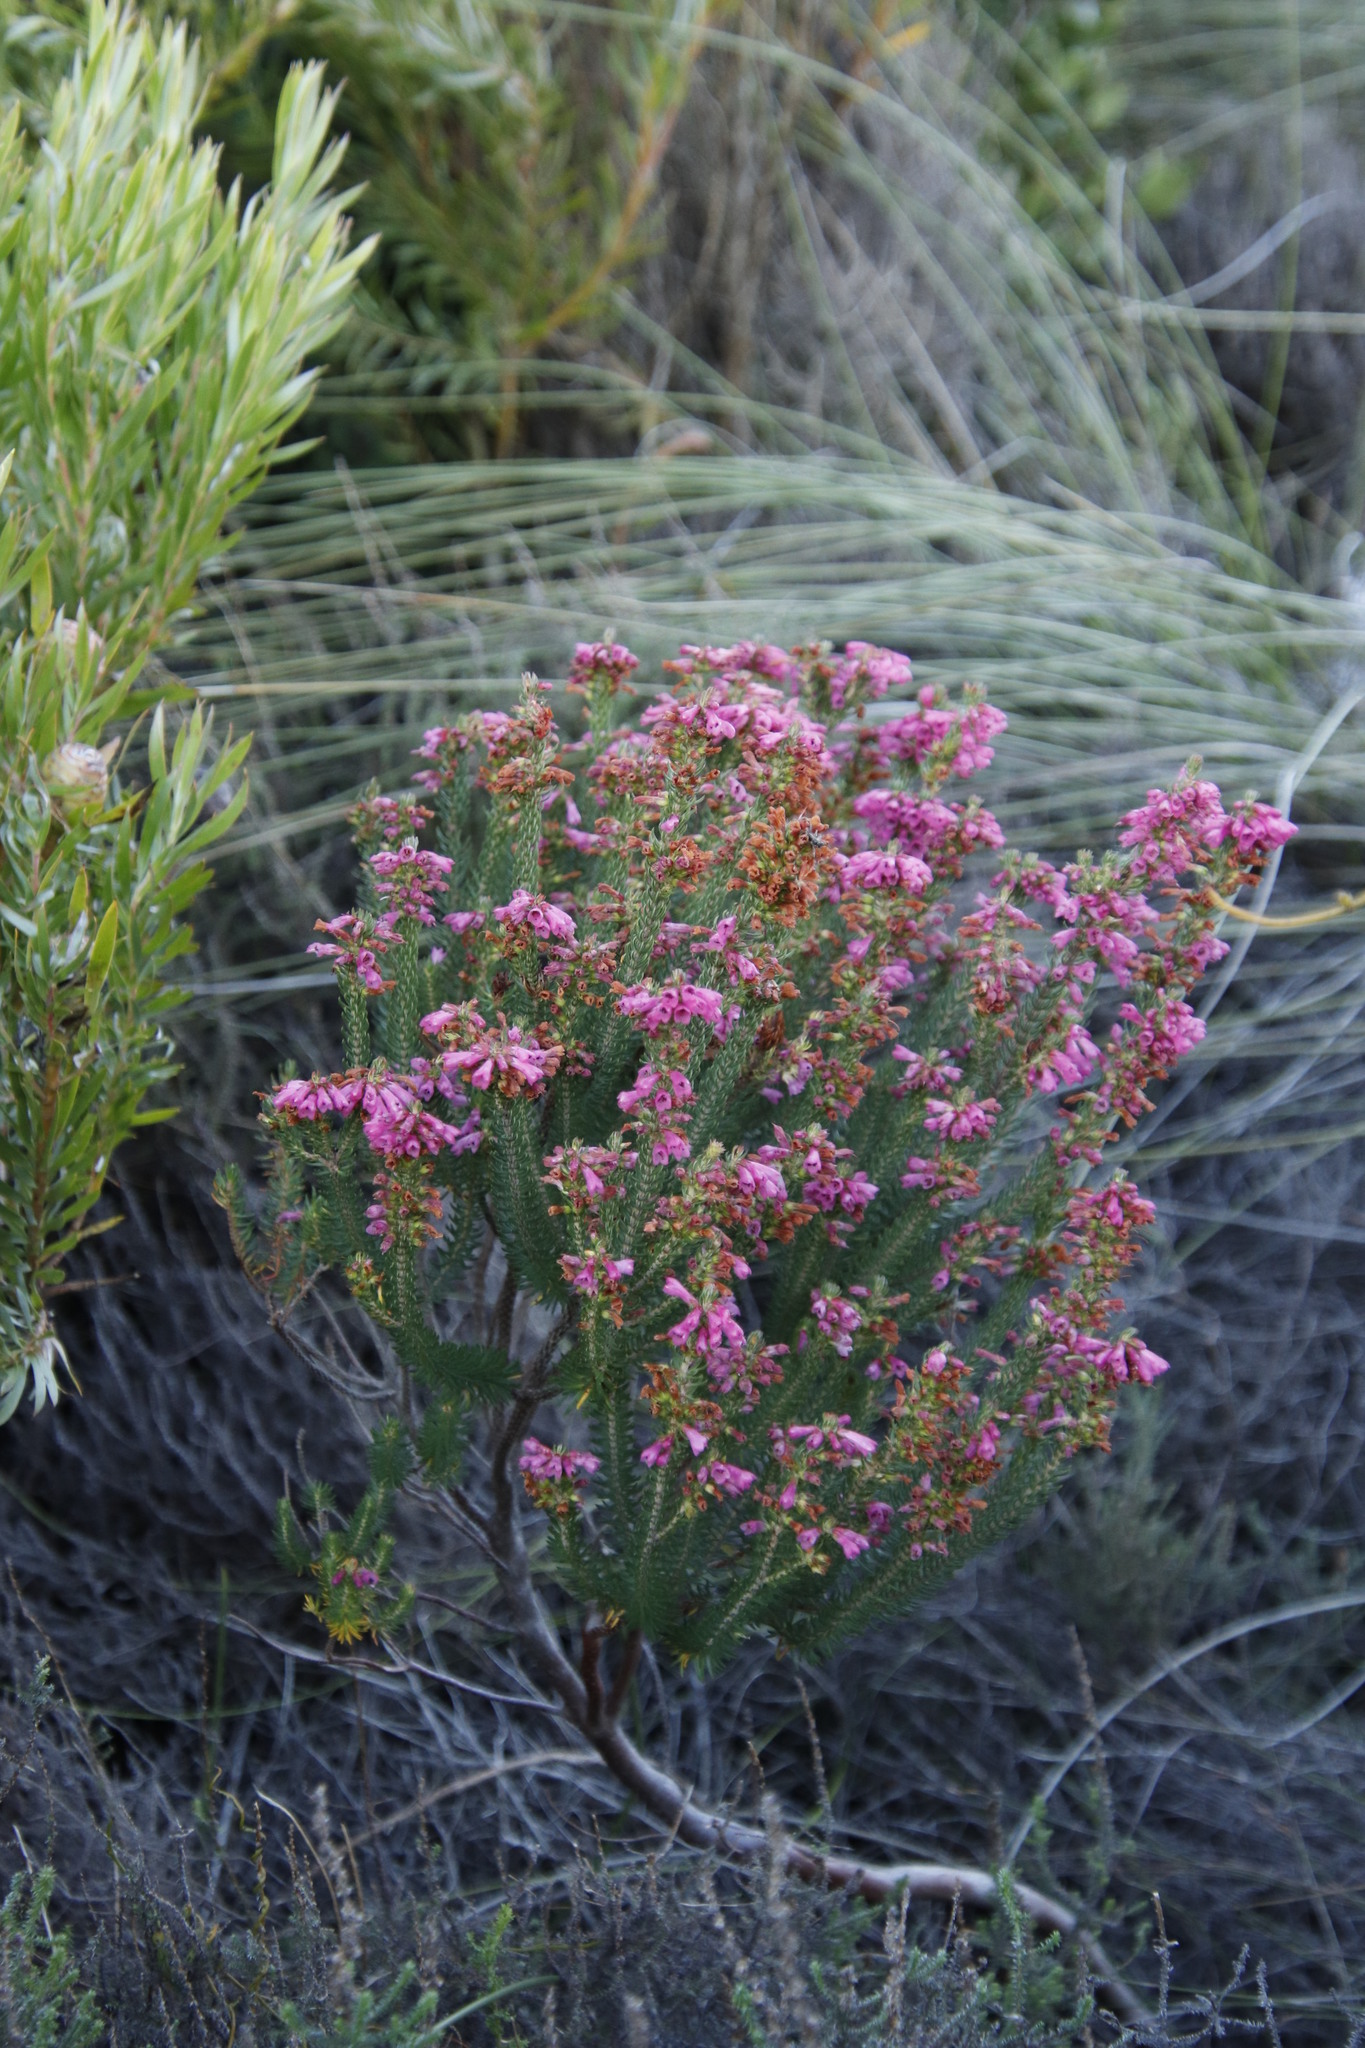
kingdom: Plantae
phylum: Tracheophyta
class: Magnoliopsida
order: Ericales
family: Ericaceae
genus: Erica
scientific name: Erica abietina
